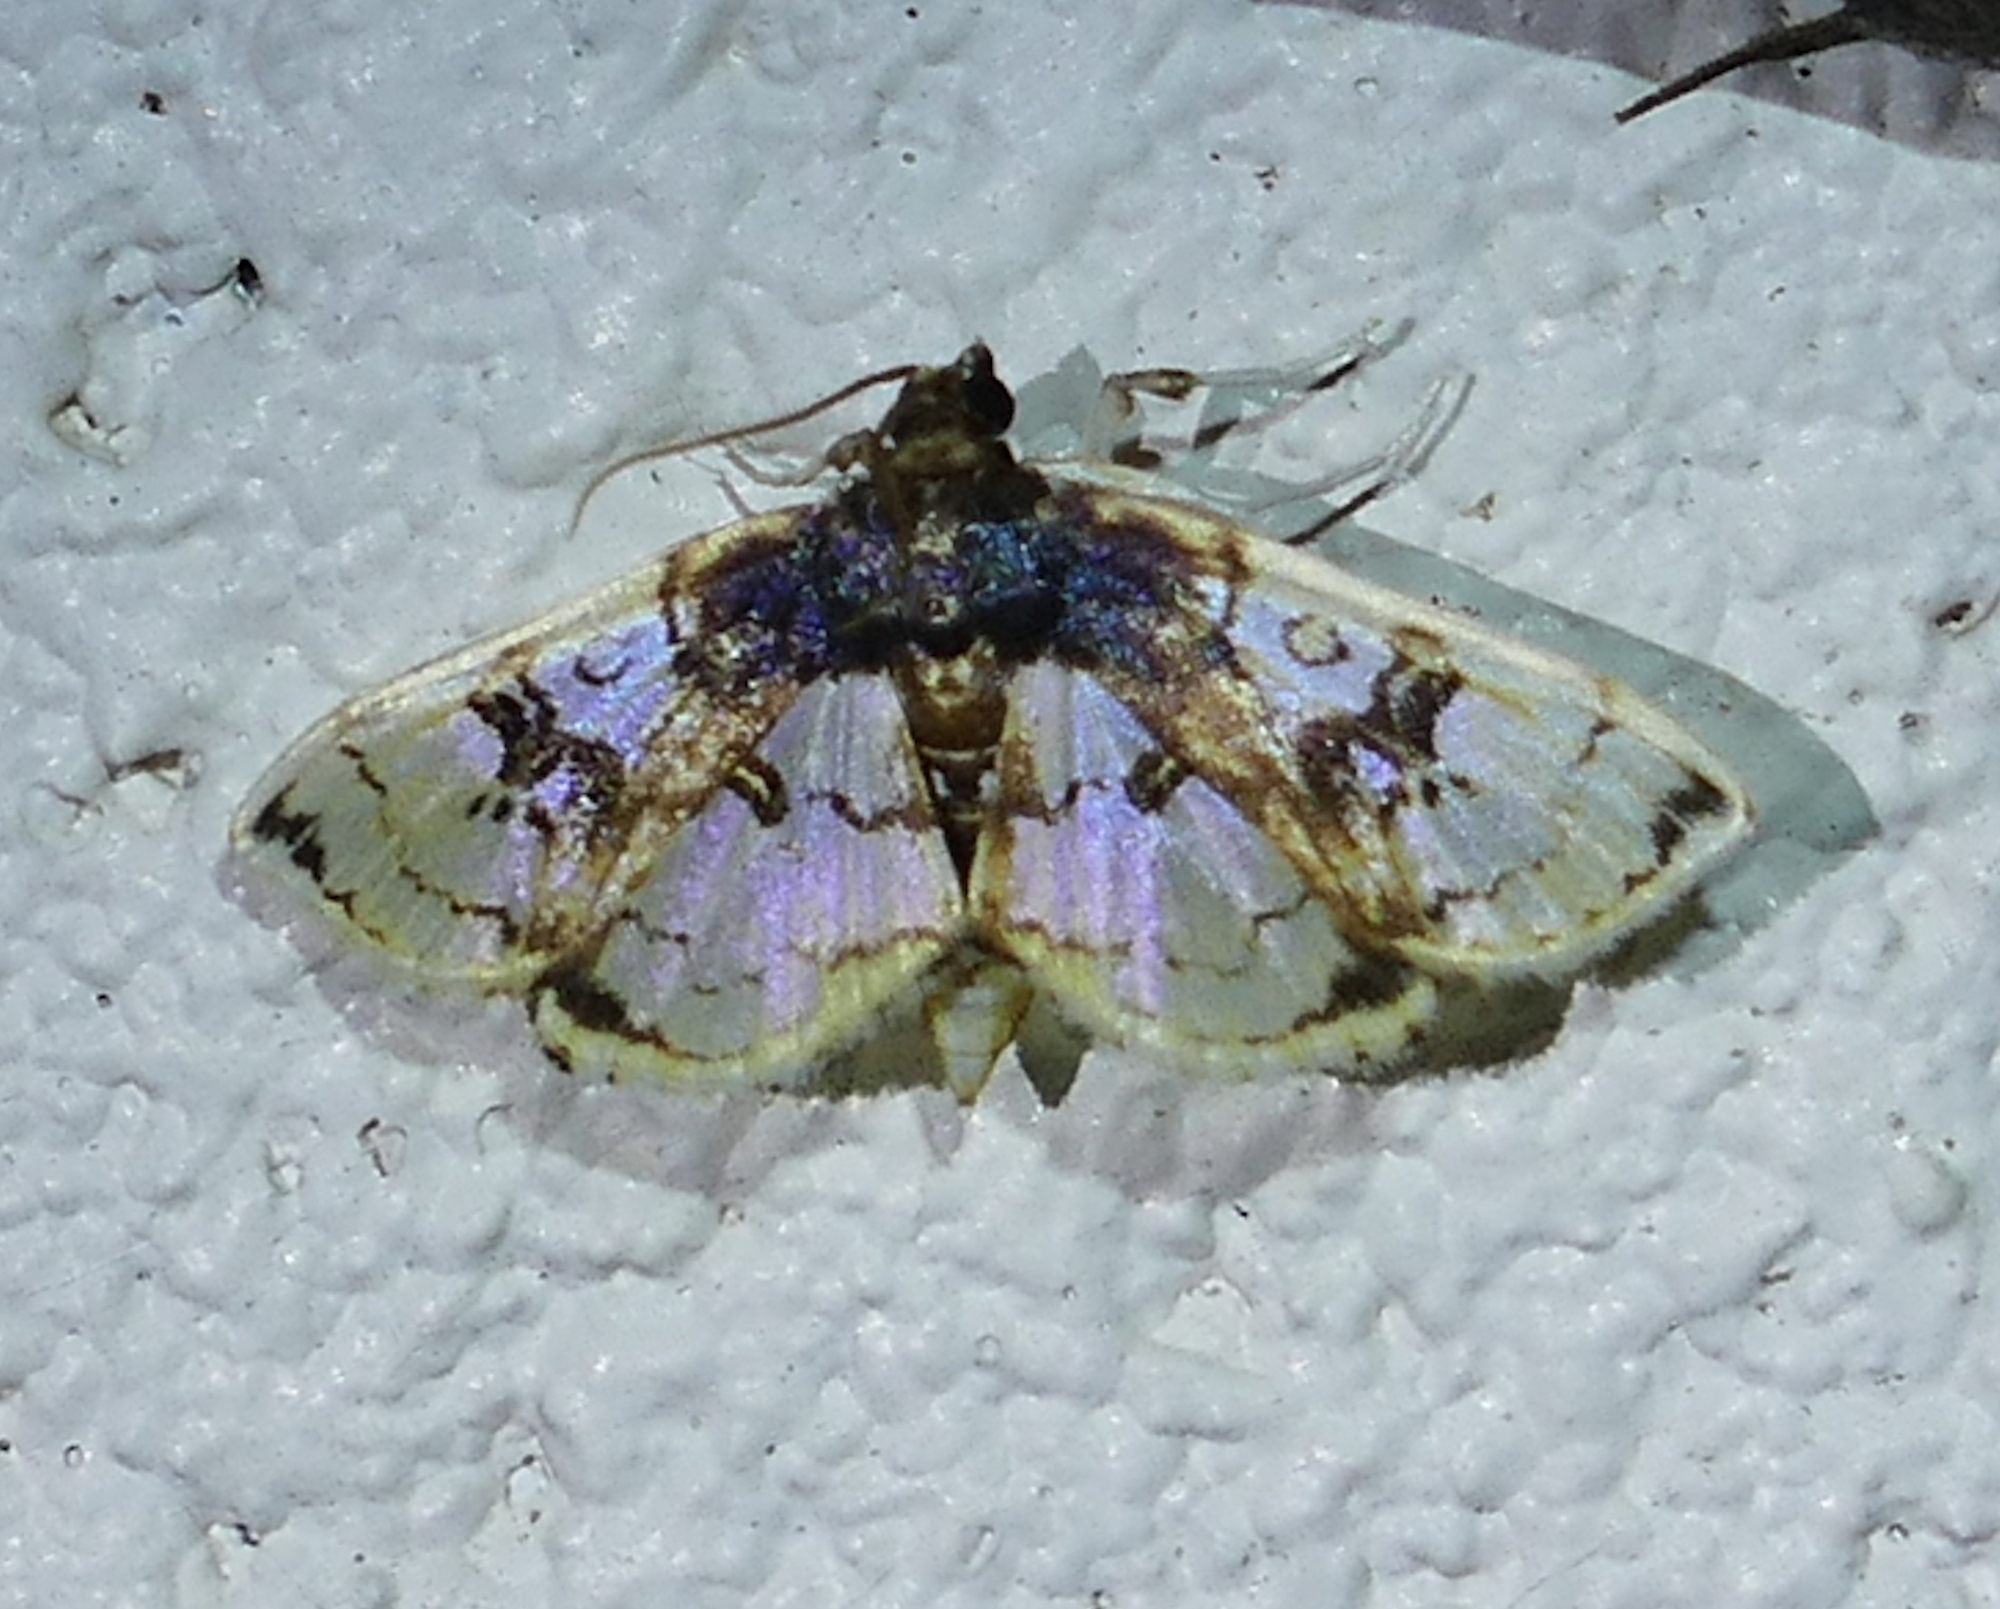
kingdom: Animalia
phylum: Arthropoda
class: Insecta
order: Lepidoptera
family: Crambidae
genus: Compacta
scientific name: Compacta hirtalis
